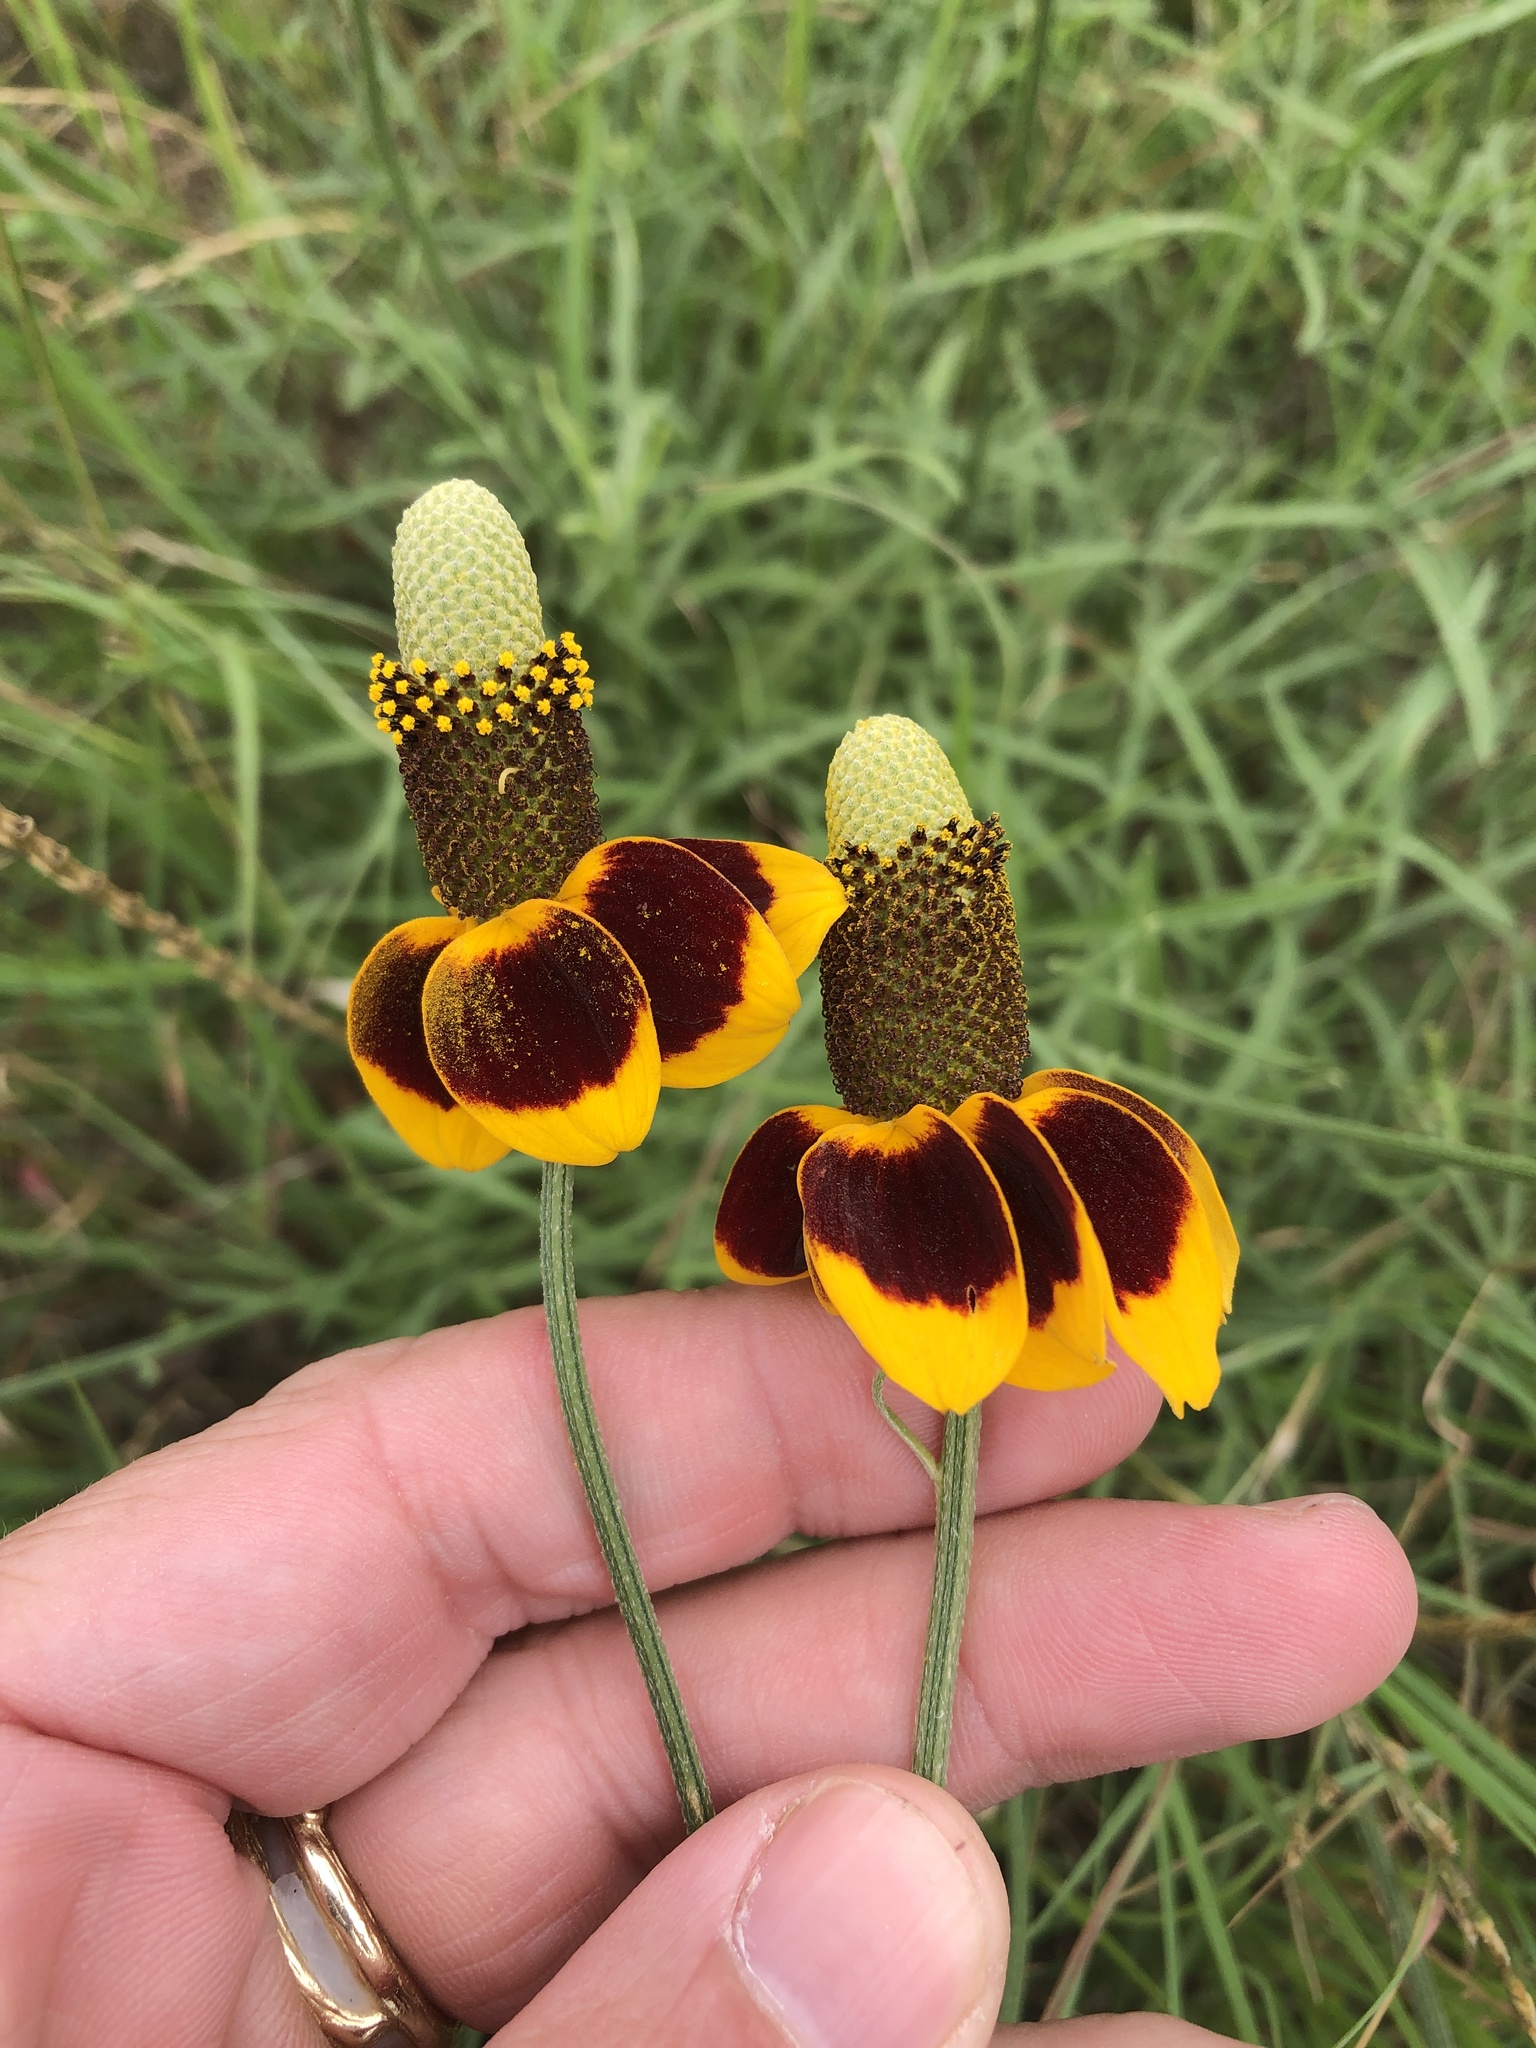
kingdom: Plantae
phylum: Tracheophyta
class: Magnoliopsida
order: Asterales
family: Asteraceae
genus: Ratibida
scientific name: Ratibida columnifera
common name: Prairie coneflower
